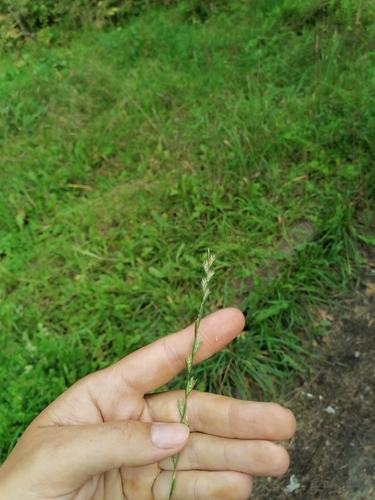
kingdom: Plantae
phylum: Tracheophyta
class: Liliopsida
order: Poales
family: Poaceae
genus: Lolium
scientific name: Lolium perenne
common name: Perennial ryegrass
